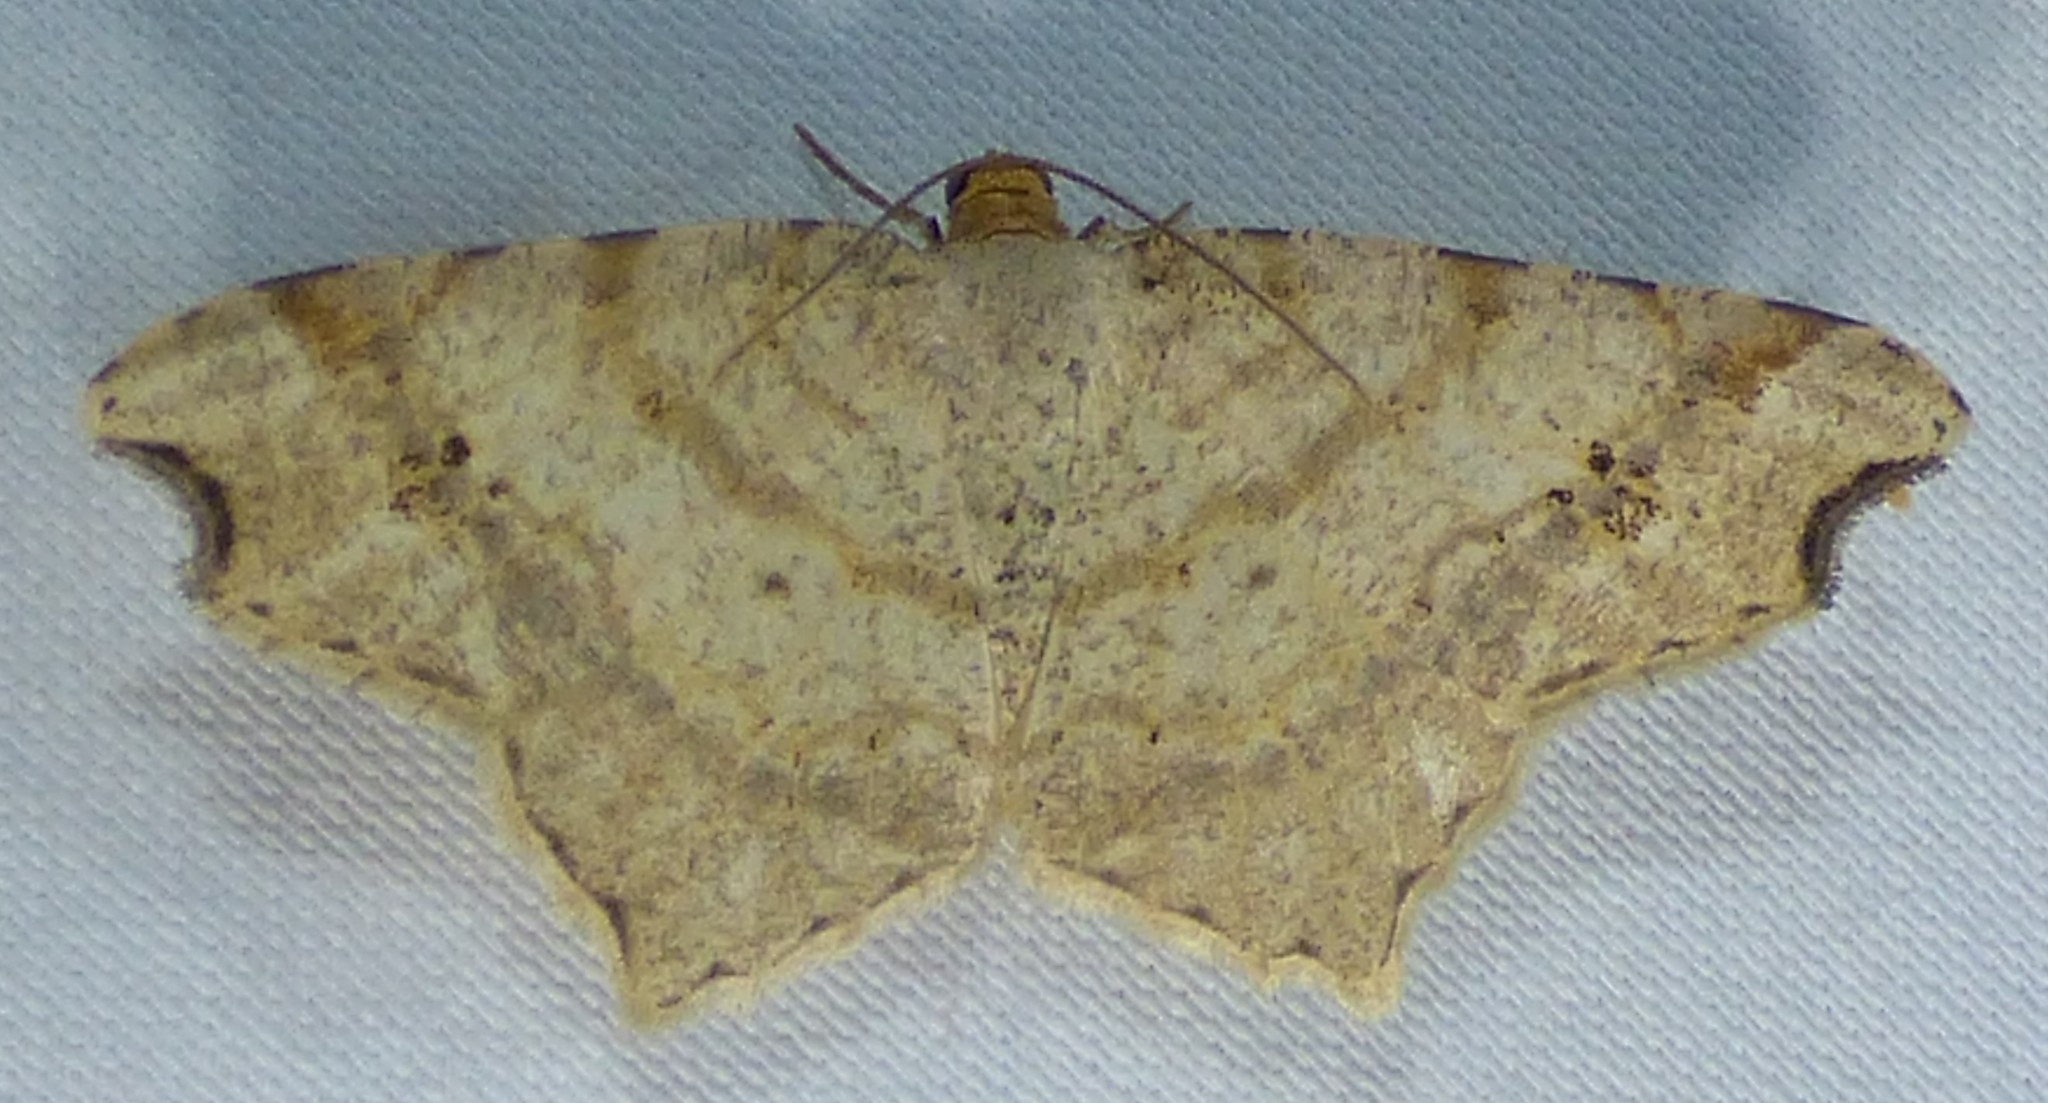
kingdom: Animalia
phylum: Arthropoda
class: Insecta
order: Lepidoptera
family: Geometridae
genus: Macaria
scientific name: Macaria aemulataria
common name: Common angle
